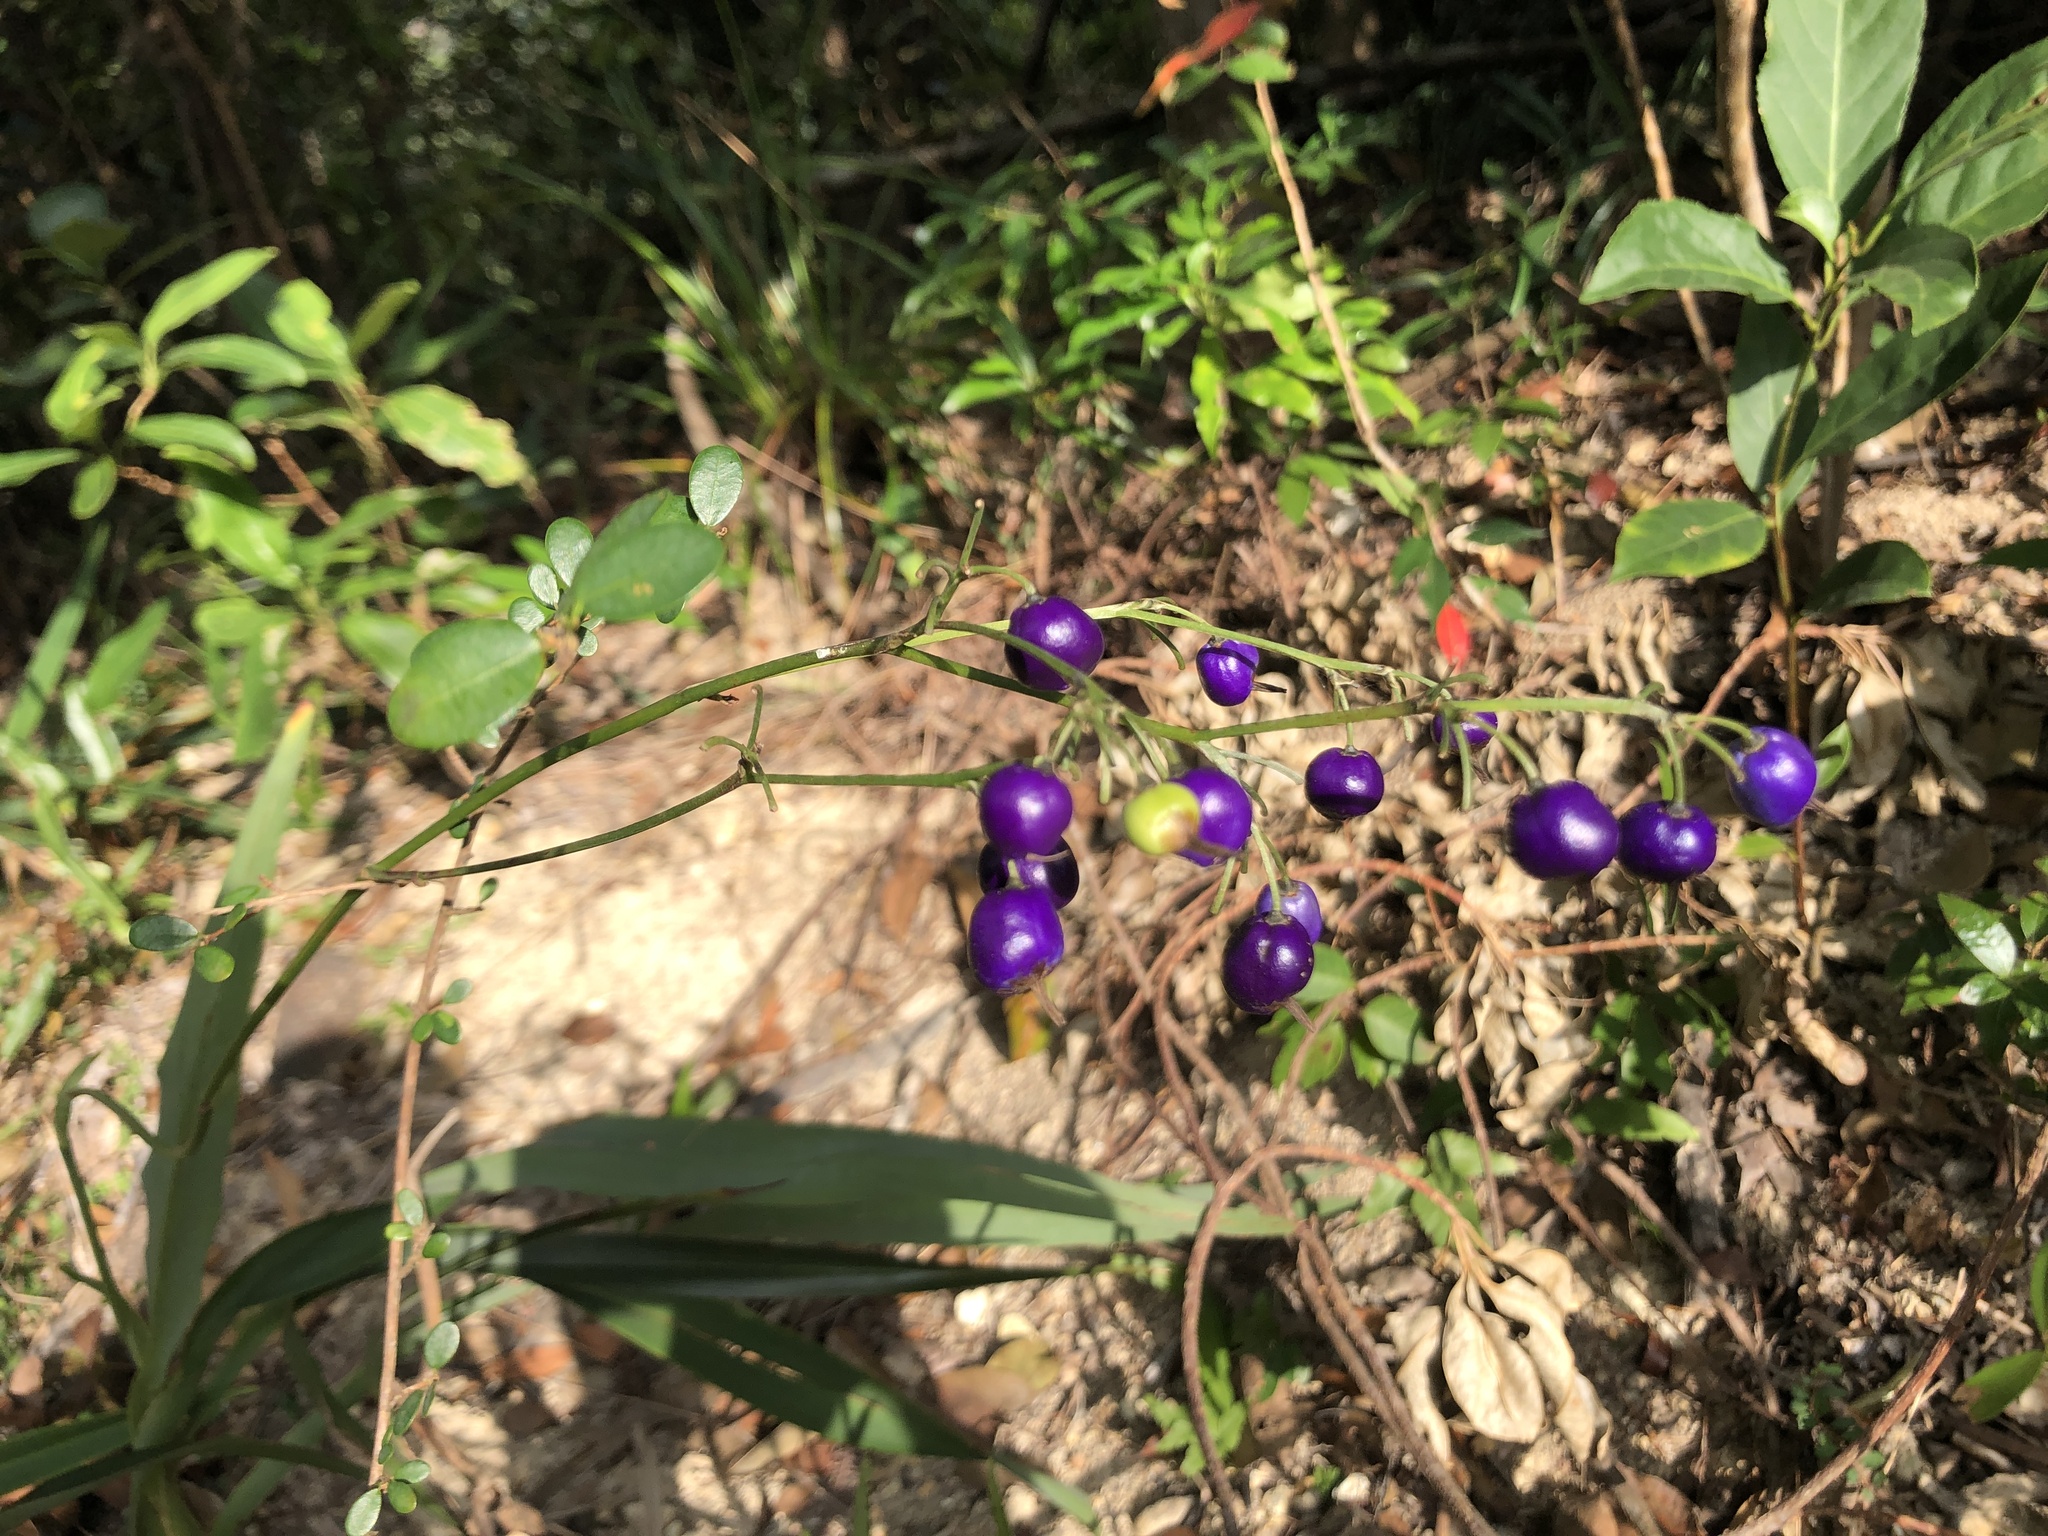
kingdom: Plantae
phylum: Tracheophyta
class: Liliopsida
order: Asparagales
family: Asphodelaceae
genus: Dianella
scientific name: Dianella ensifolia
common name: New zealand lilyplant
